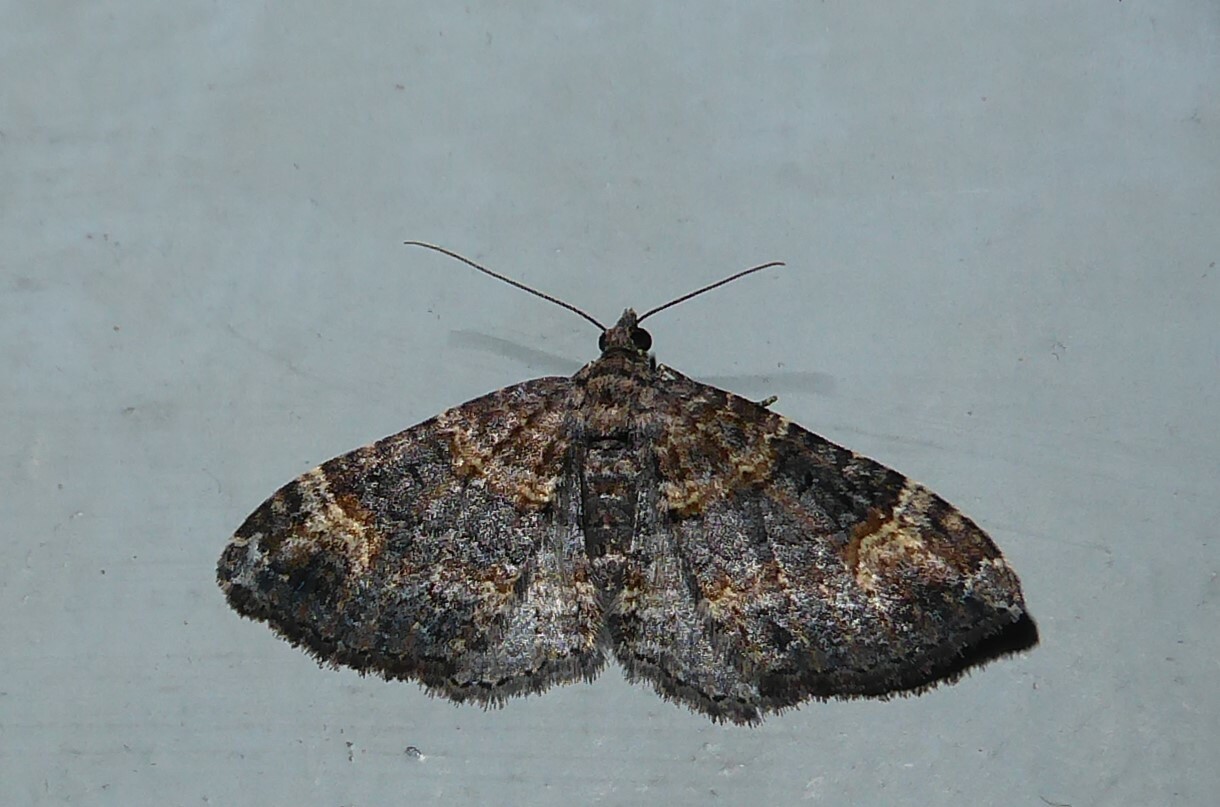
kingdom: Animalia
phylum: Arthropoda
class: Insecta
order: Lepidoptera
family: Geometridae
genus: Epyaxa
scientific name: Epyaxa sodaliata
